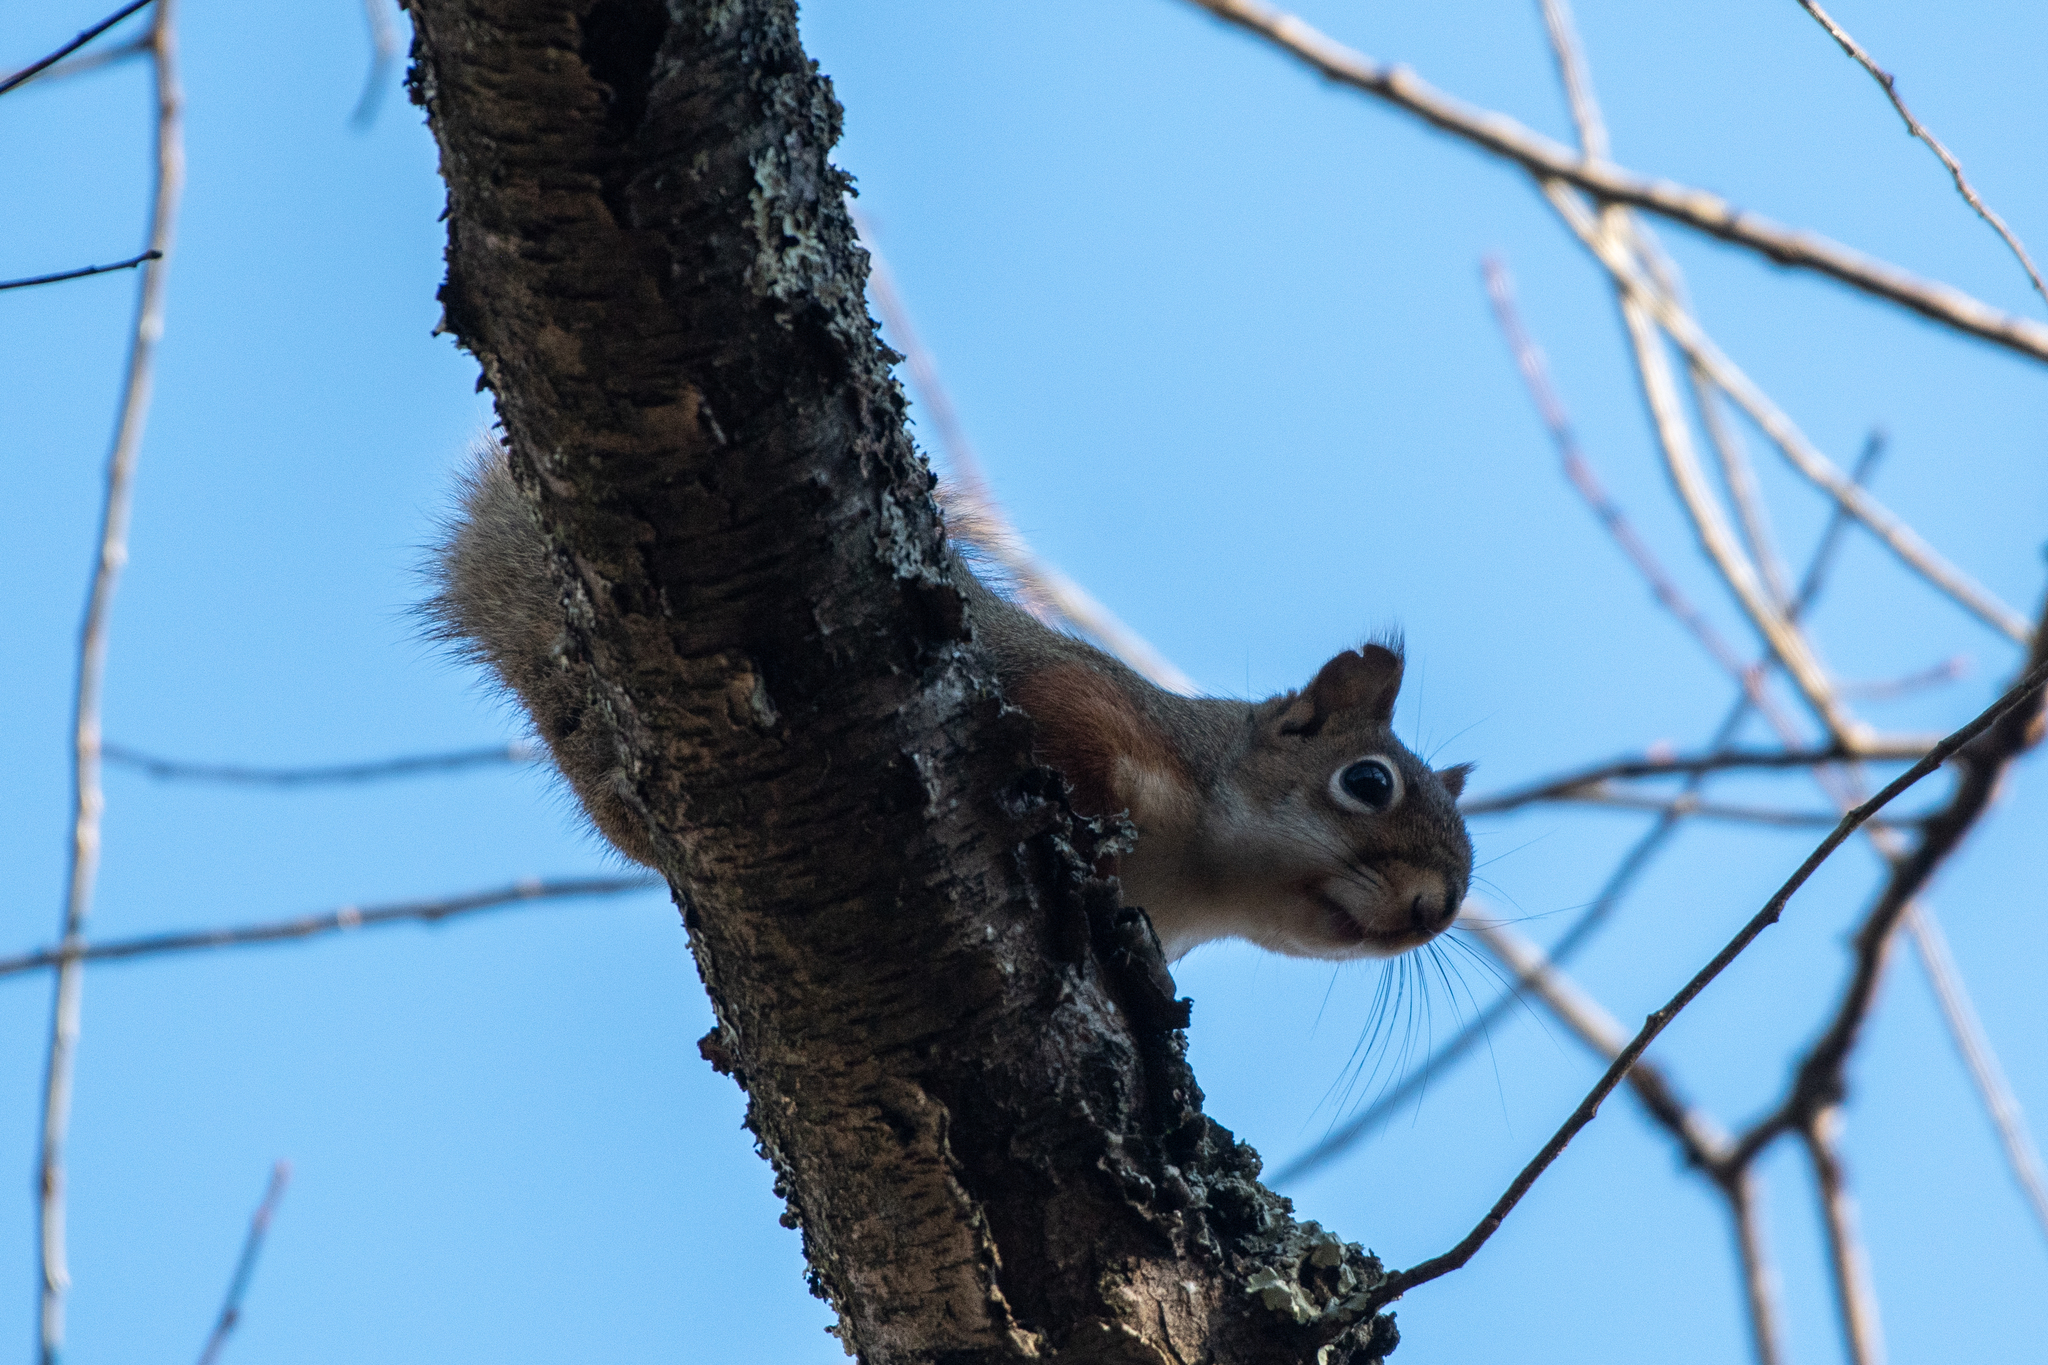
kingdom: Animalia
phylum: Chordata
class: Mammalia
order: Rodentia
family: Sciuridae
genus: Tamiasciurus
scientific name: Tamiasciurus hudsonicus
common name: Red squirrel
